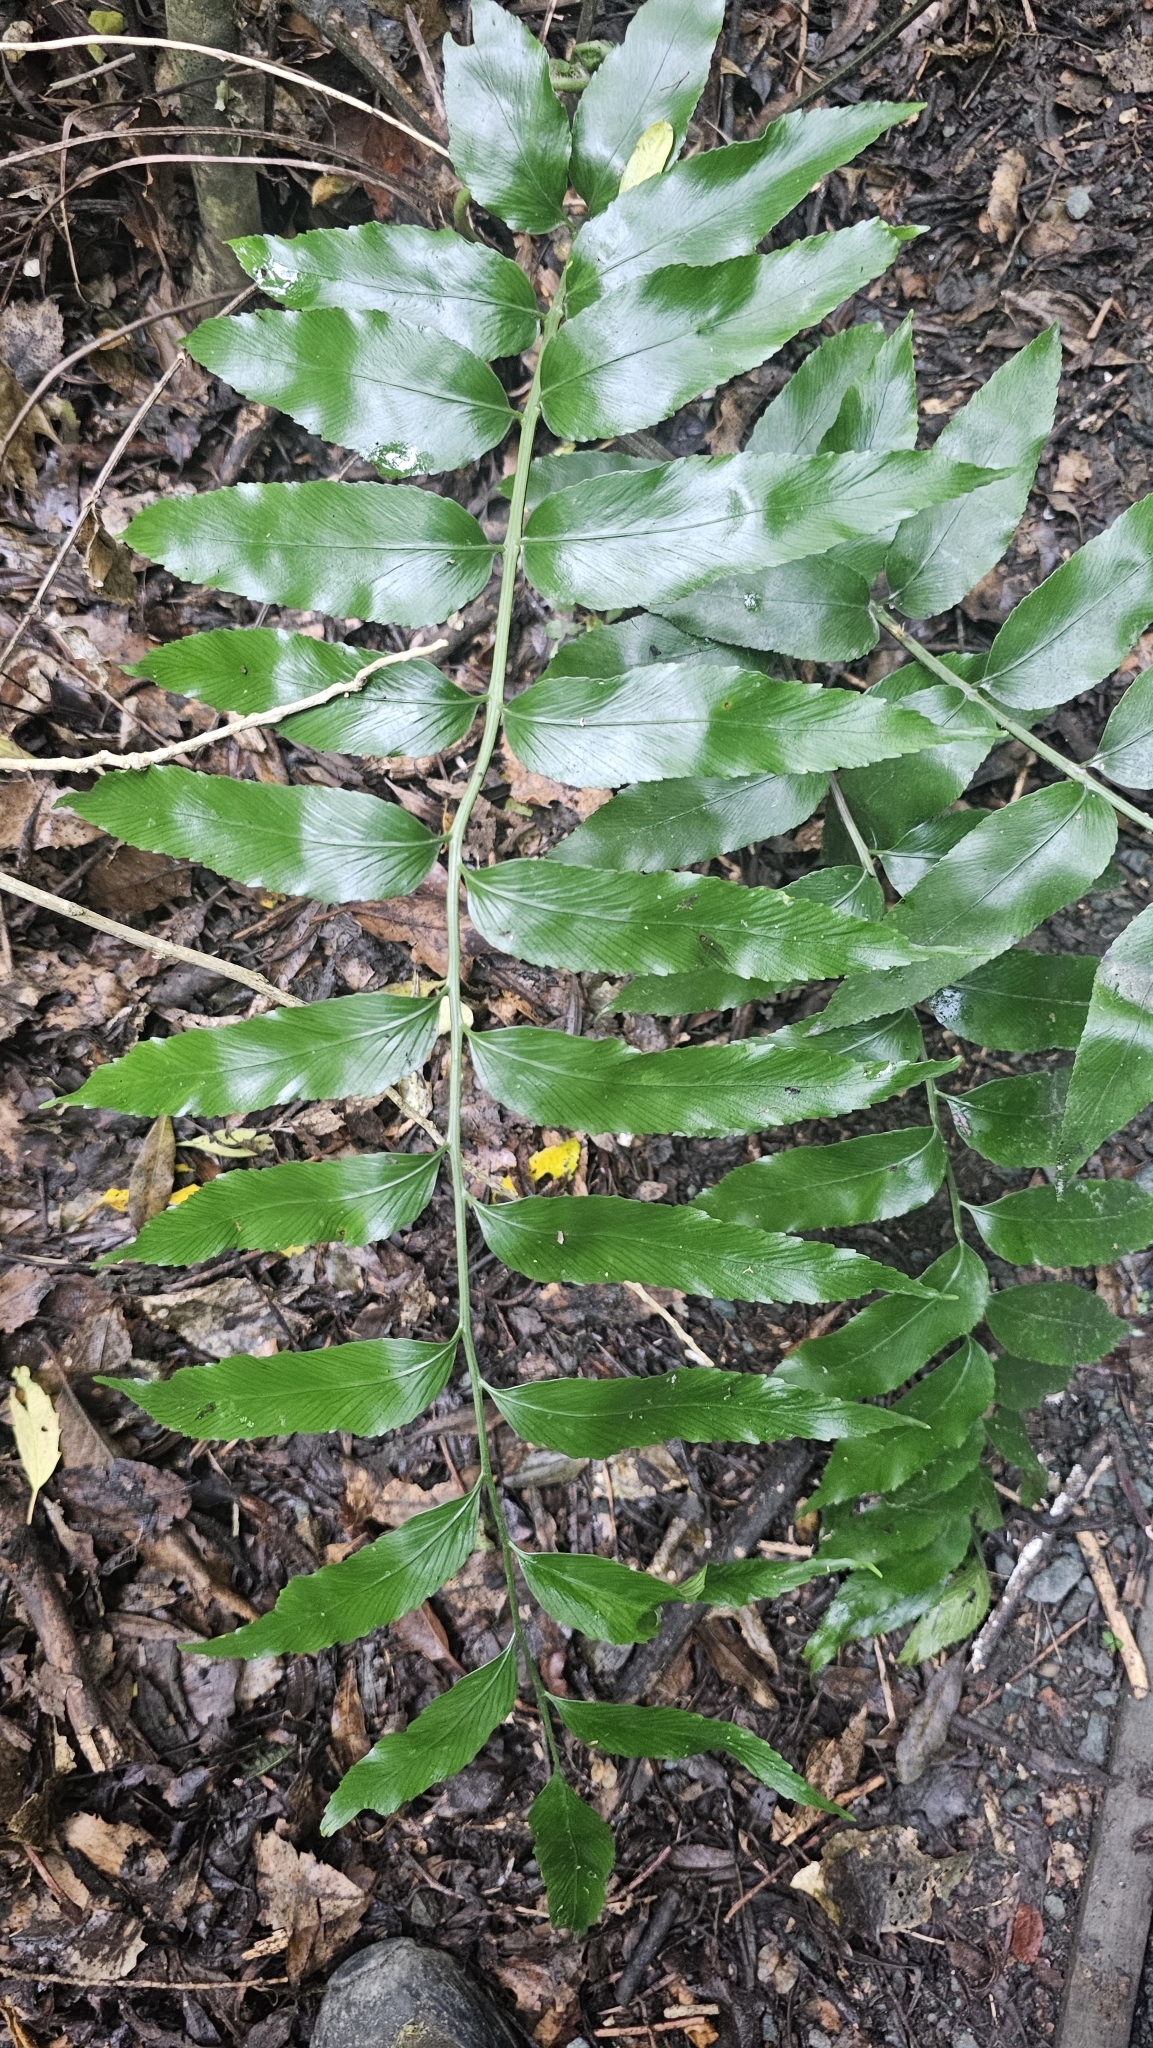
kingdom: Plantae
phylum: Tracheophyta
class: Polypodiopsida
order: Polypodiales
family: Aspleniaceae
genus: Asplenium
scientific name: Asplenium oblongifolium
